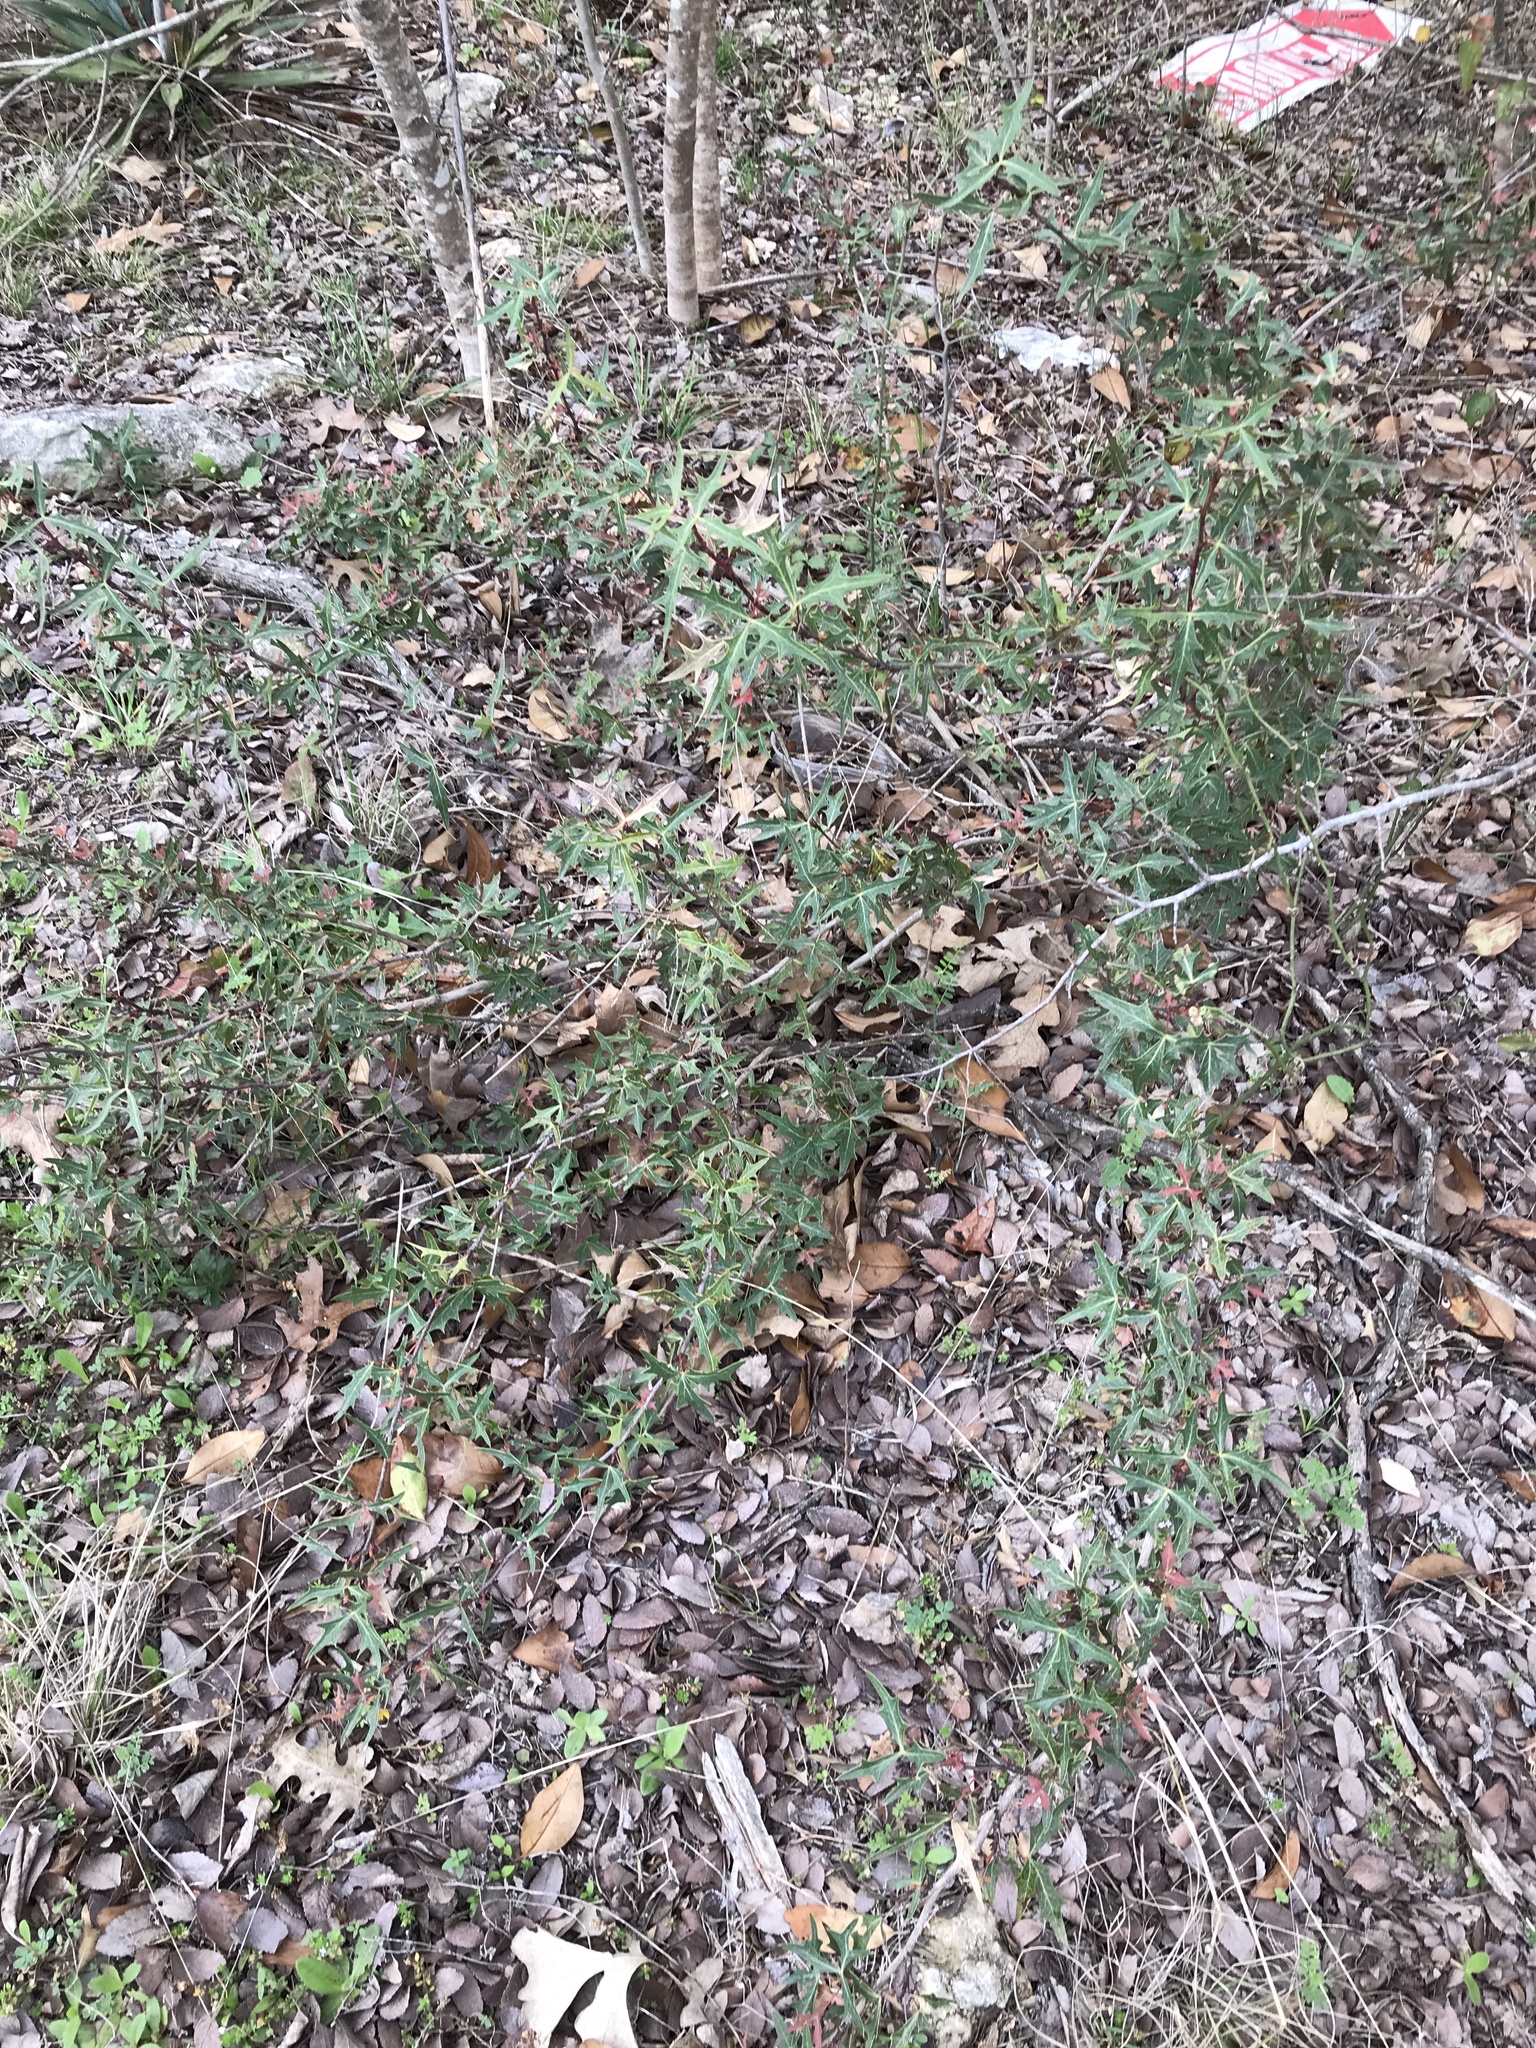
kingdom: Plantae
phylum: Tracheophyta
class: Magnoliopsida
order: Ranunculales
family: Berberidaceae
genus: Alloberberis
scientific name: Alloberberis trifoliolata
